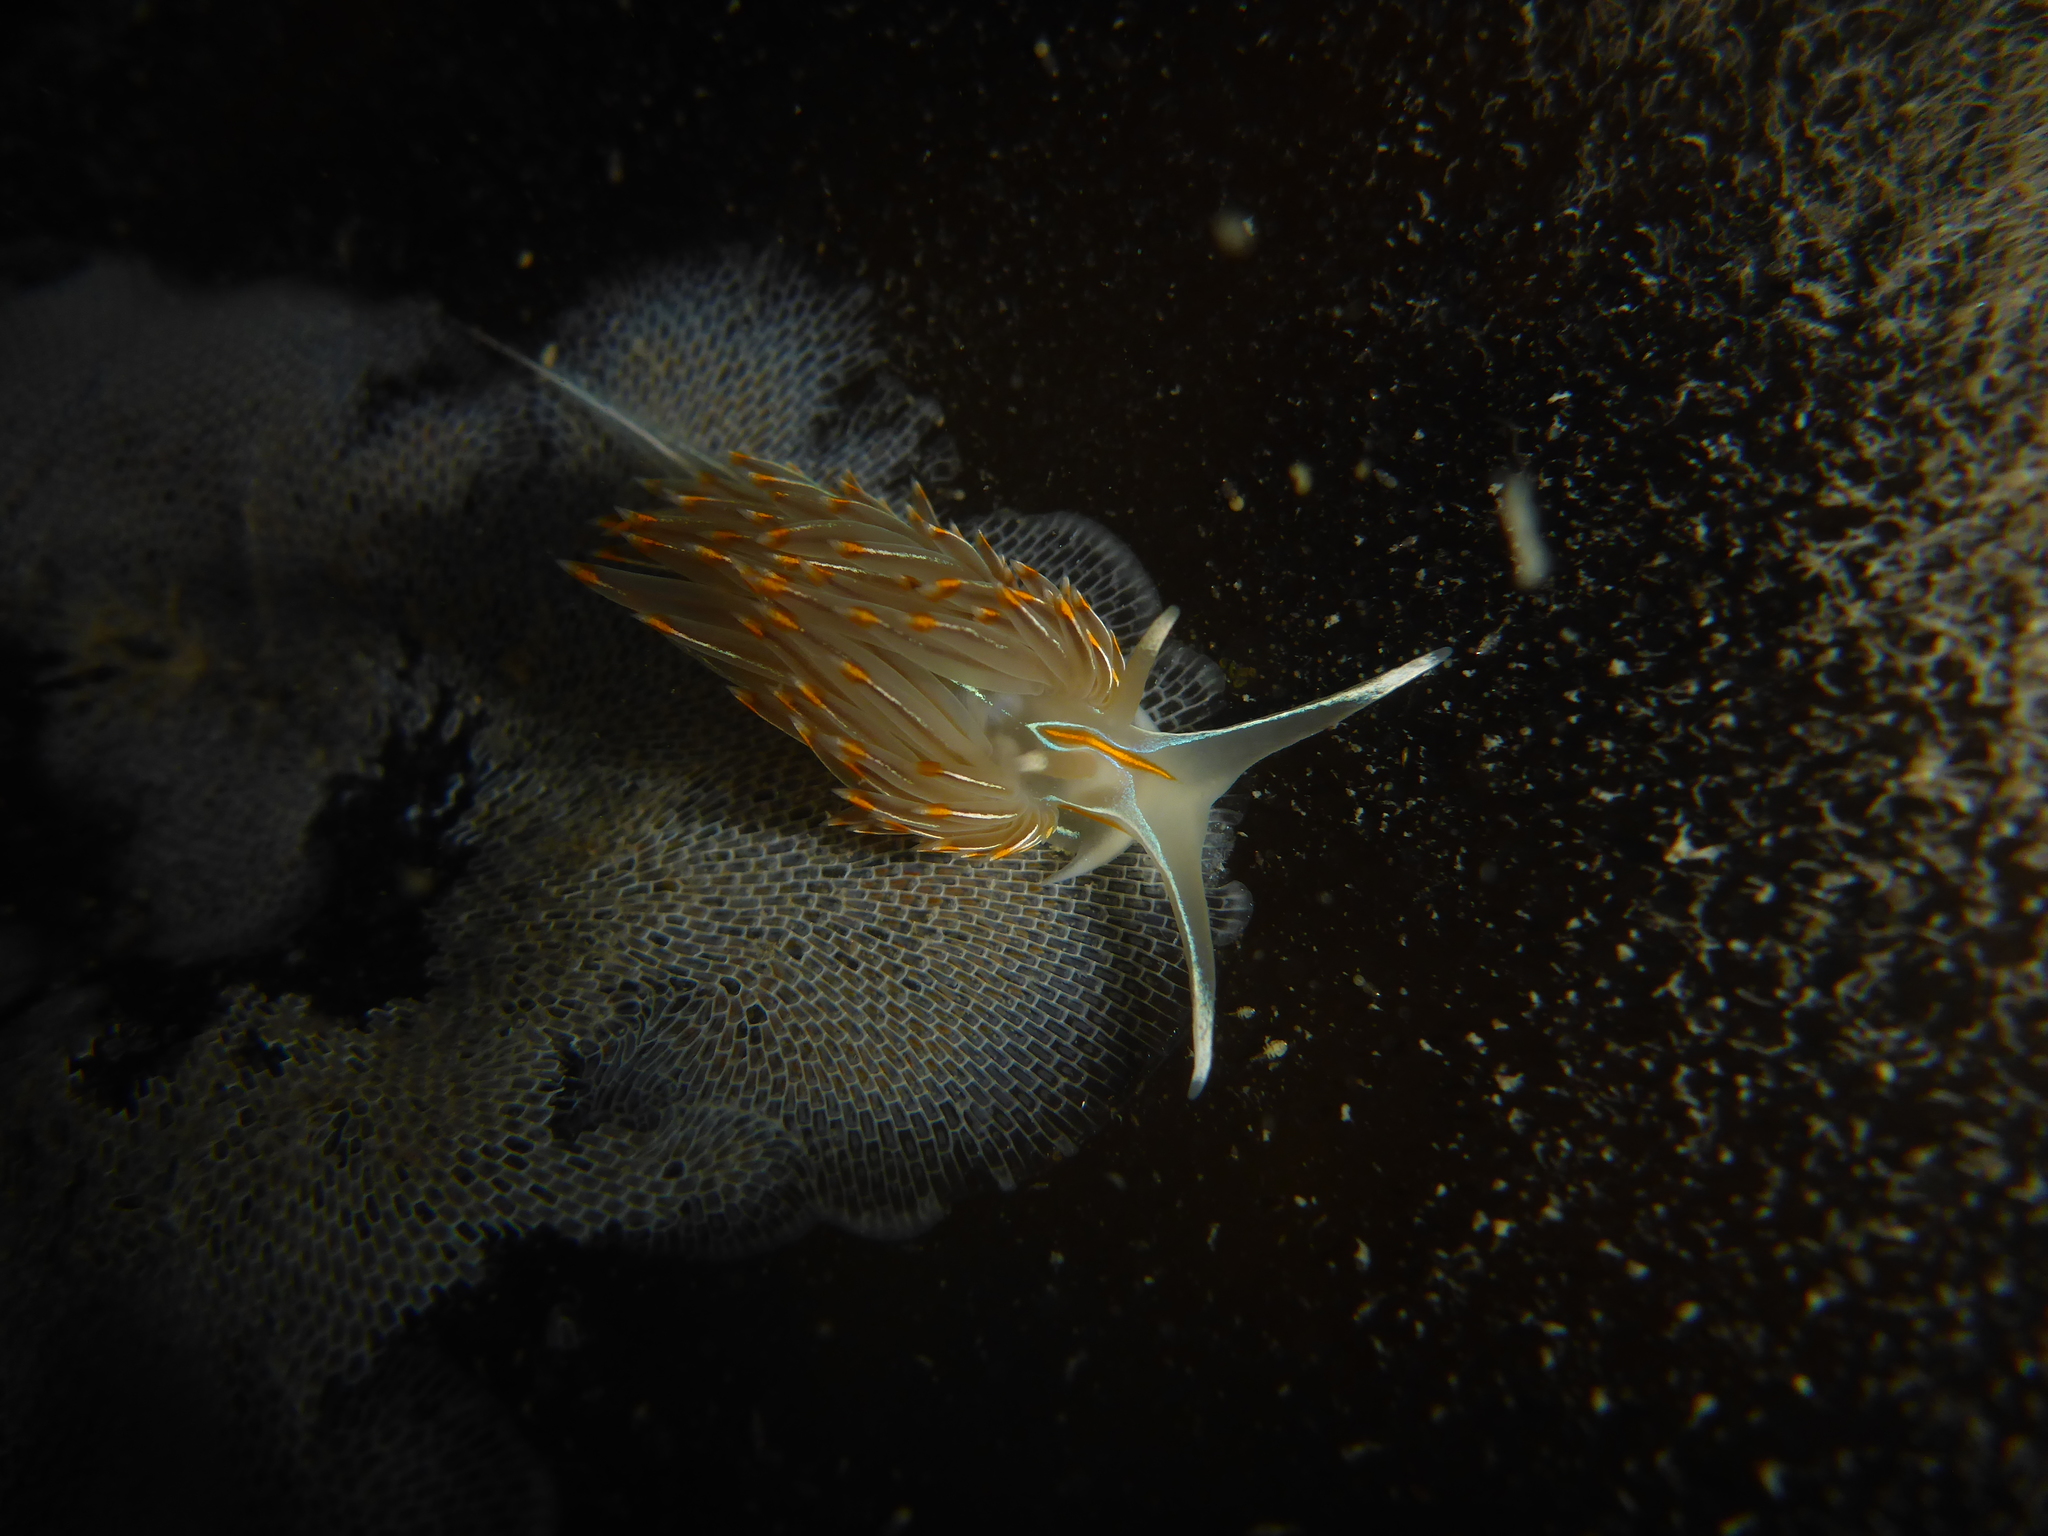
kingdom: Animalia
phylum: Mollusca
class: Gastropoda
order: Nudibranchia
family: Myrrhinidae
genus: Hermissenda
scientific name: Hermissenda crassicornis
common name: Hermissenda
